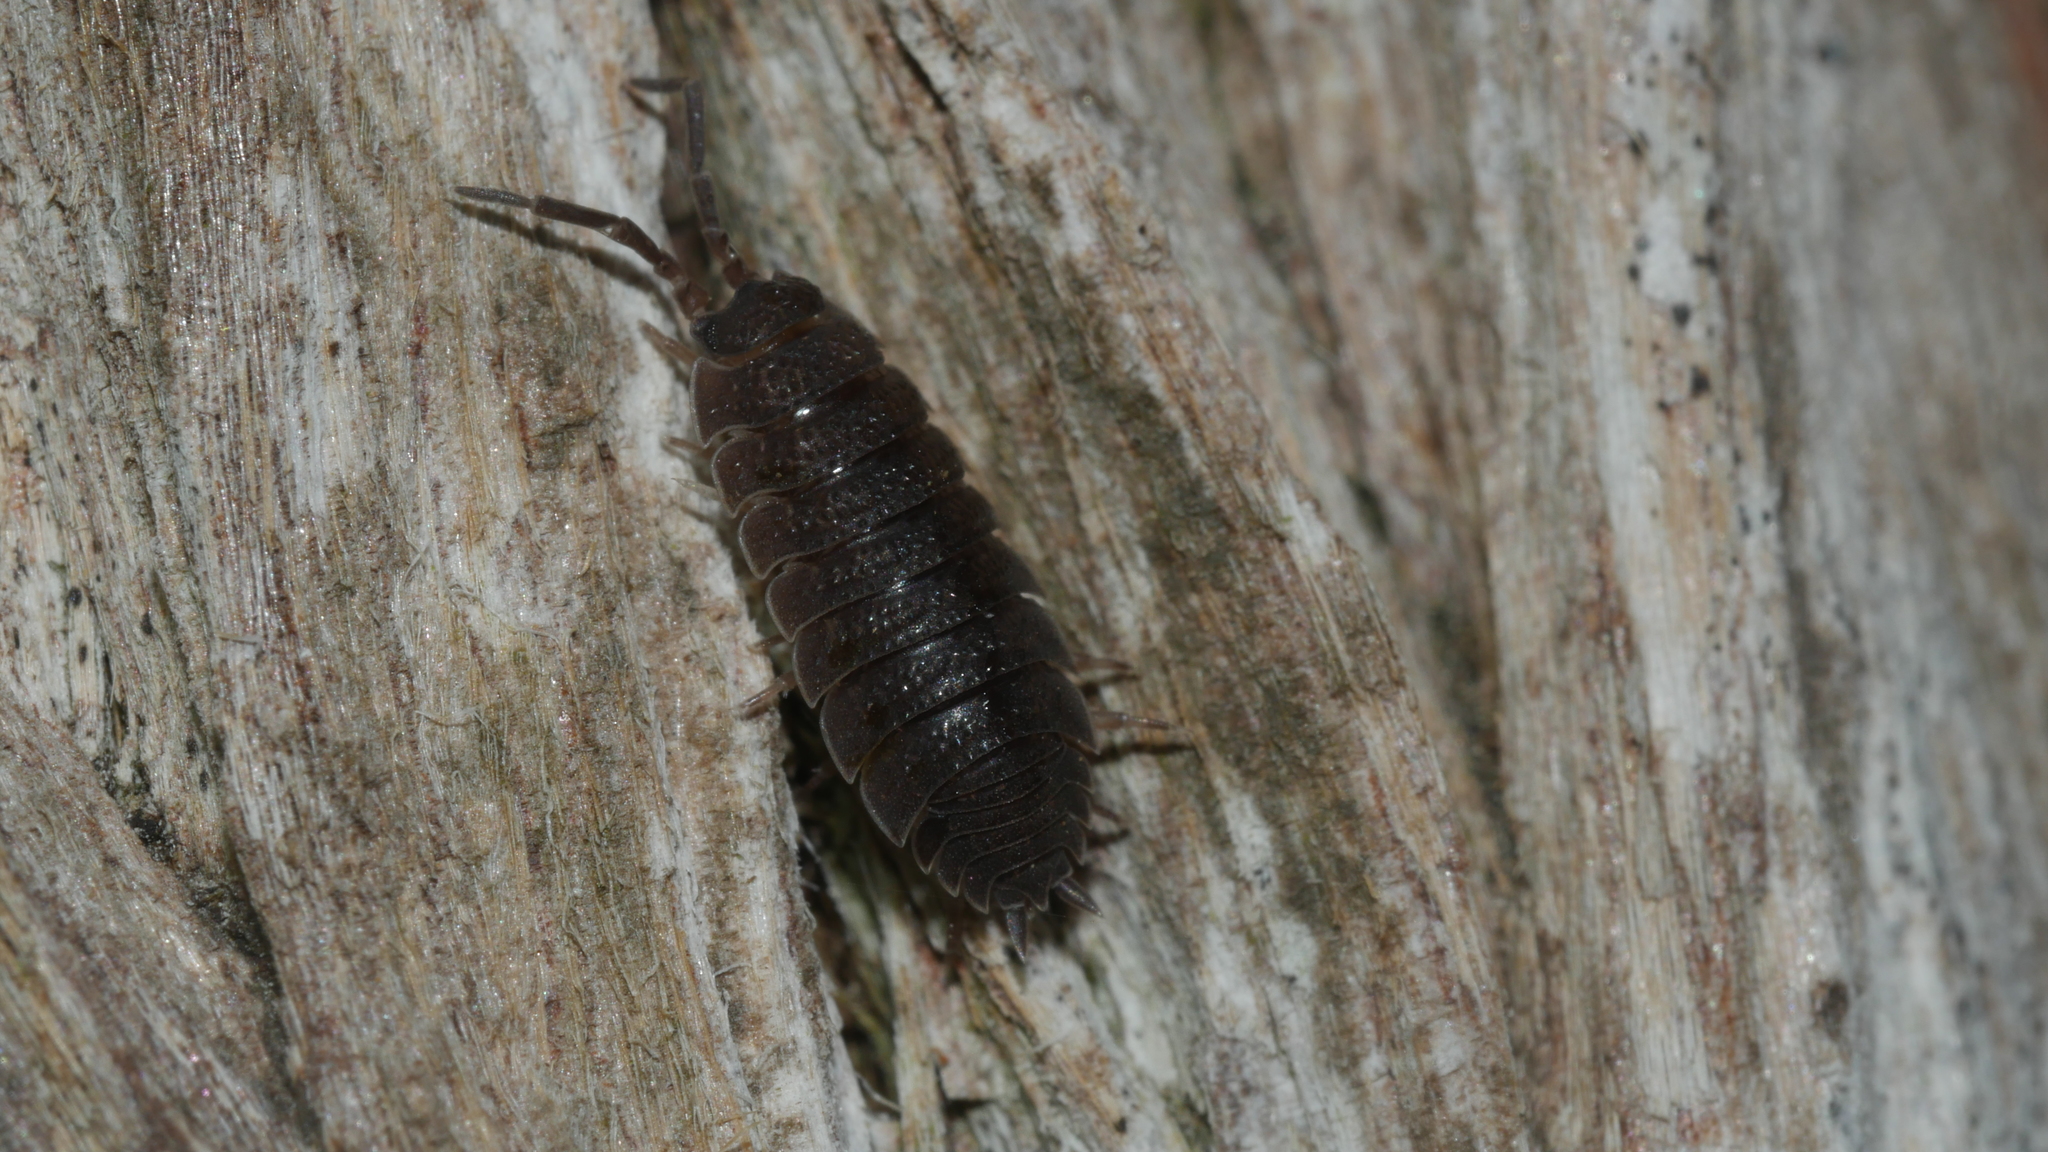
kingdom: Animalia
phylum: Arthropoda
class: Malacostraca
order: Isopoda
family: Porcellionidae
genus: Porcellio
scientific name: Porcellio scaber
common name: Common rough woodlouse
